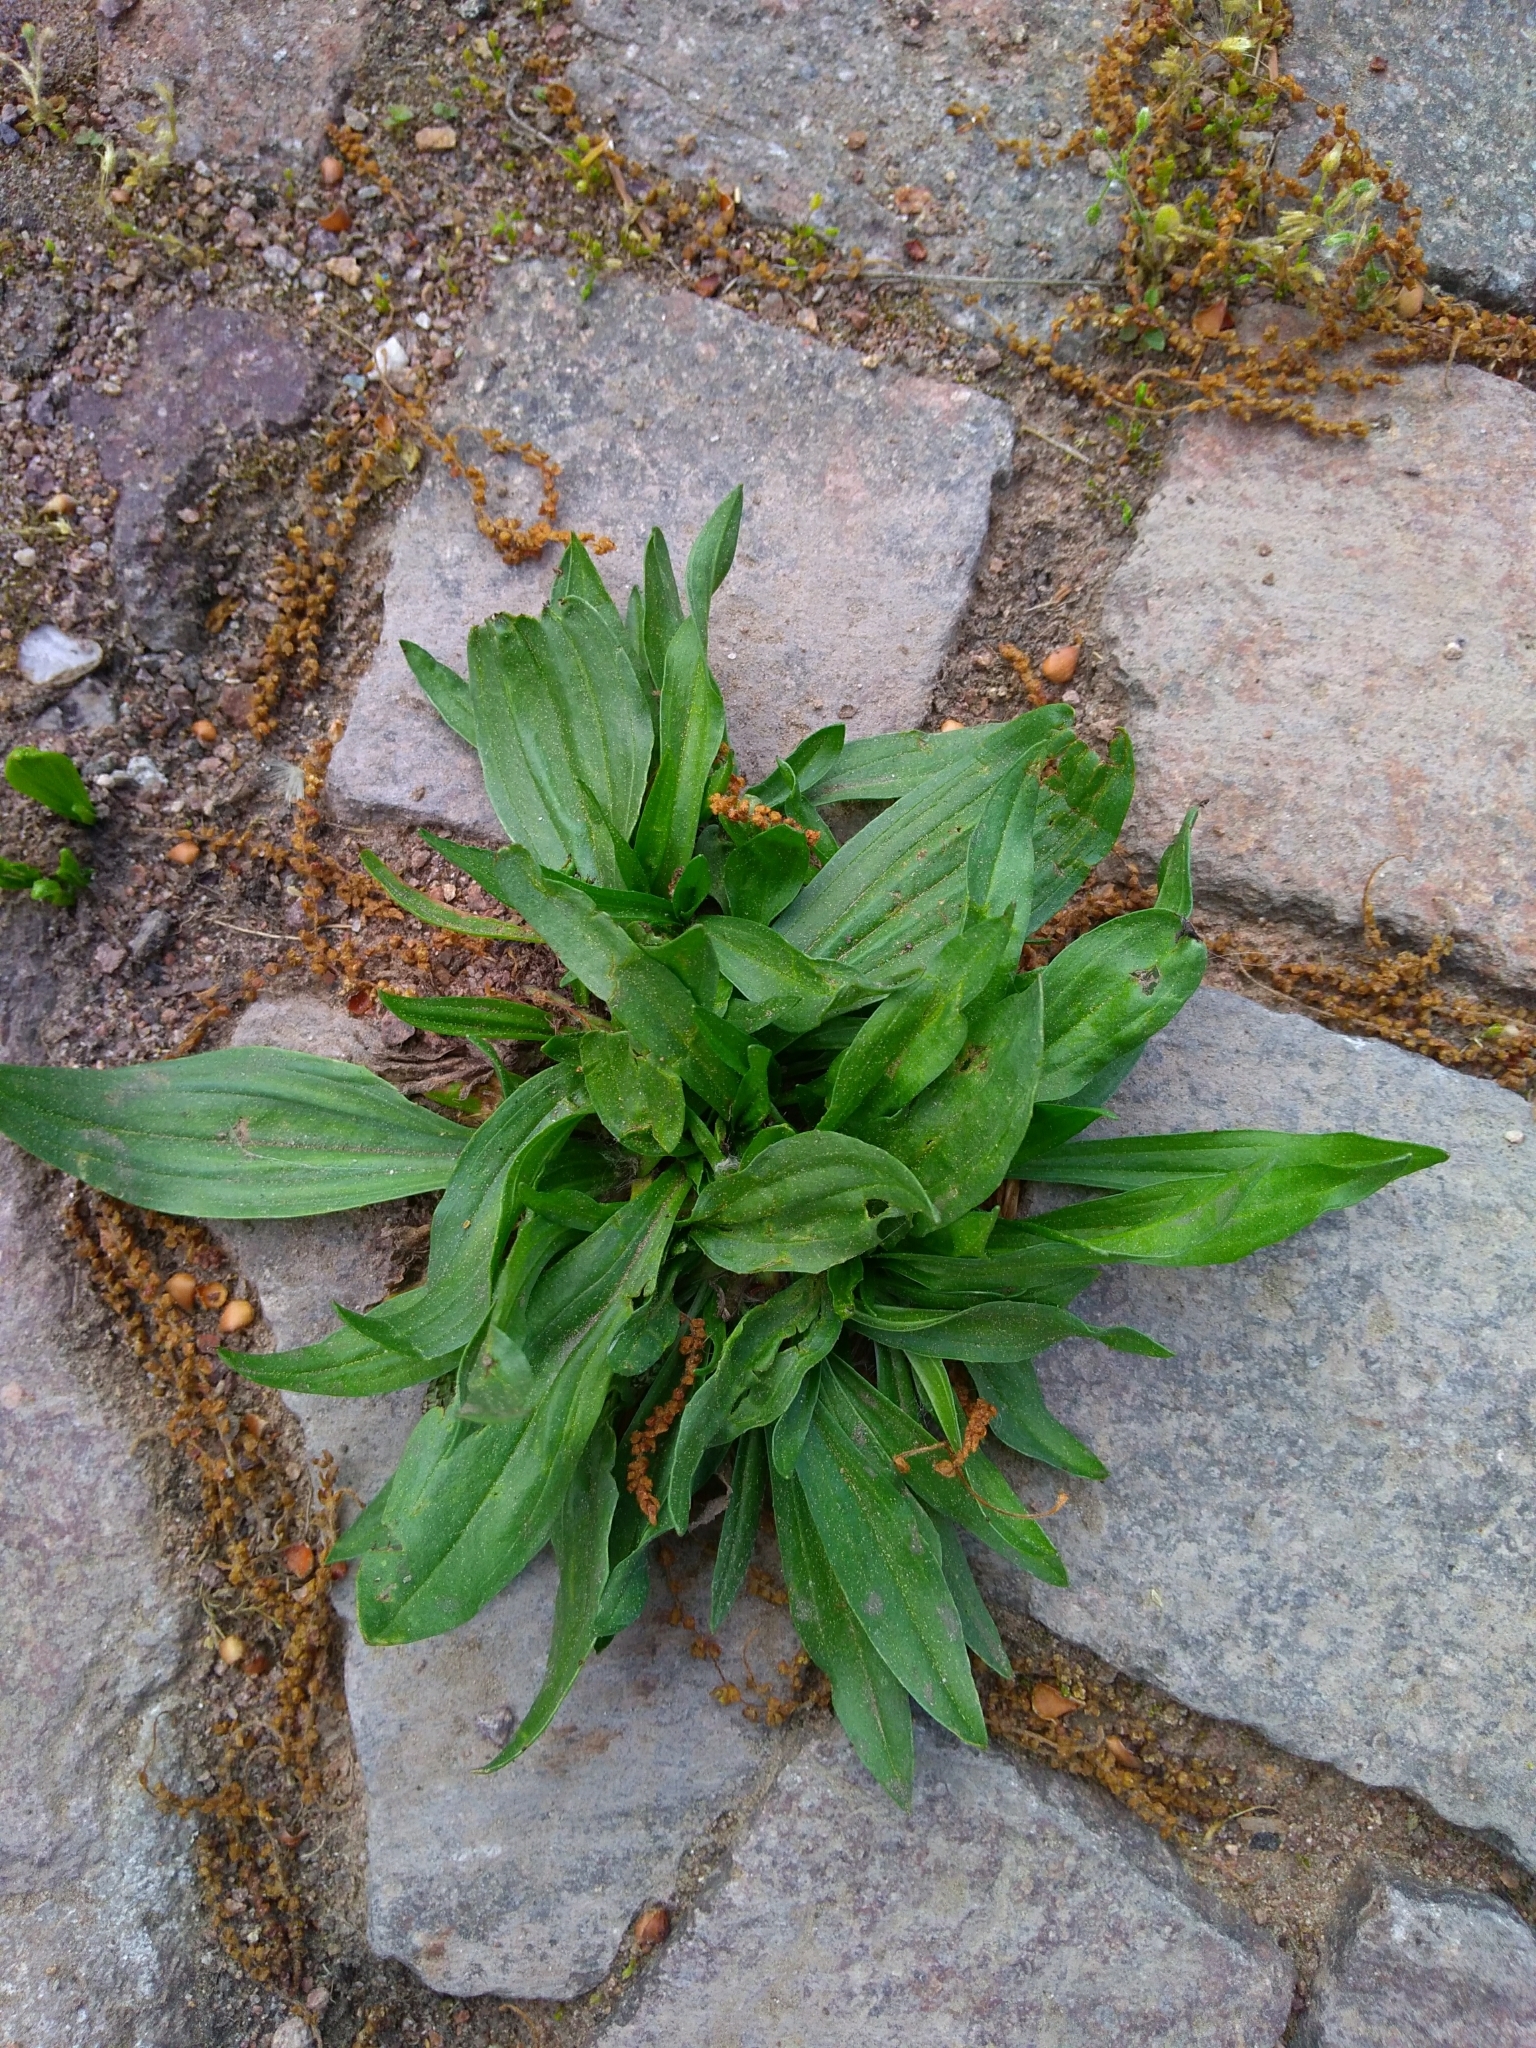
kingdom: Plantae
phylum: Tracheophyta
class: Magnoliopsida
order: Lamiales
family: Plantaginaceae
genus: Plantago
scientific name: Plantago lanceolata
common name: Ribwort plantain
